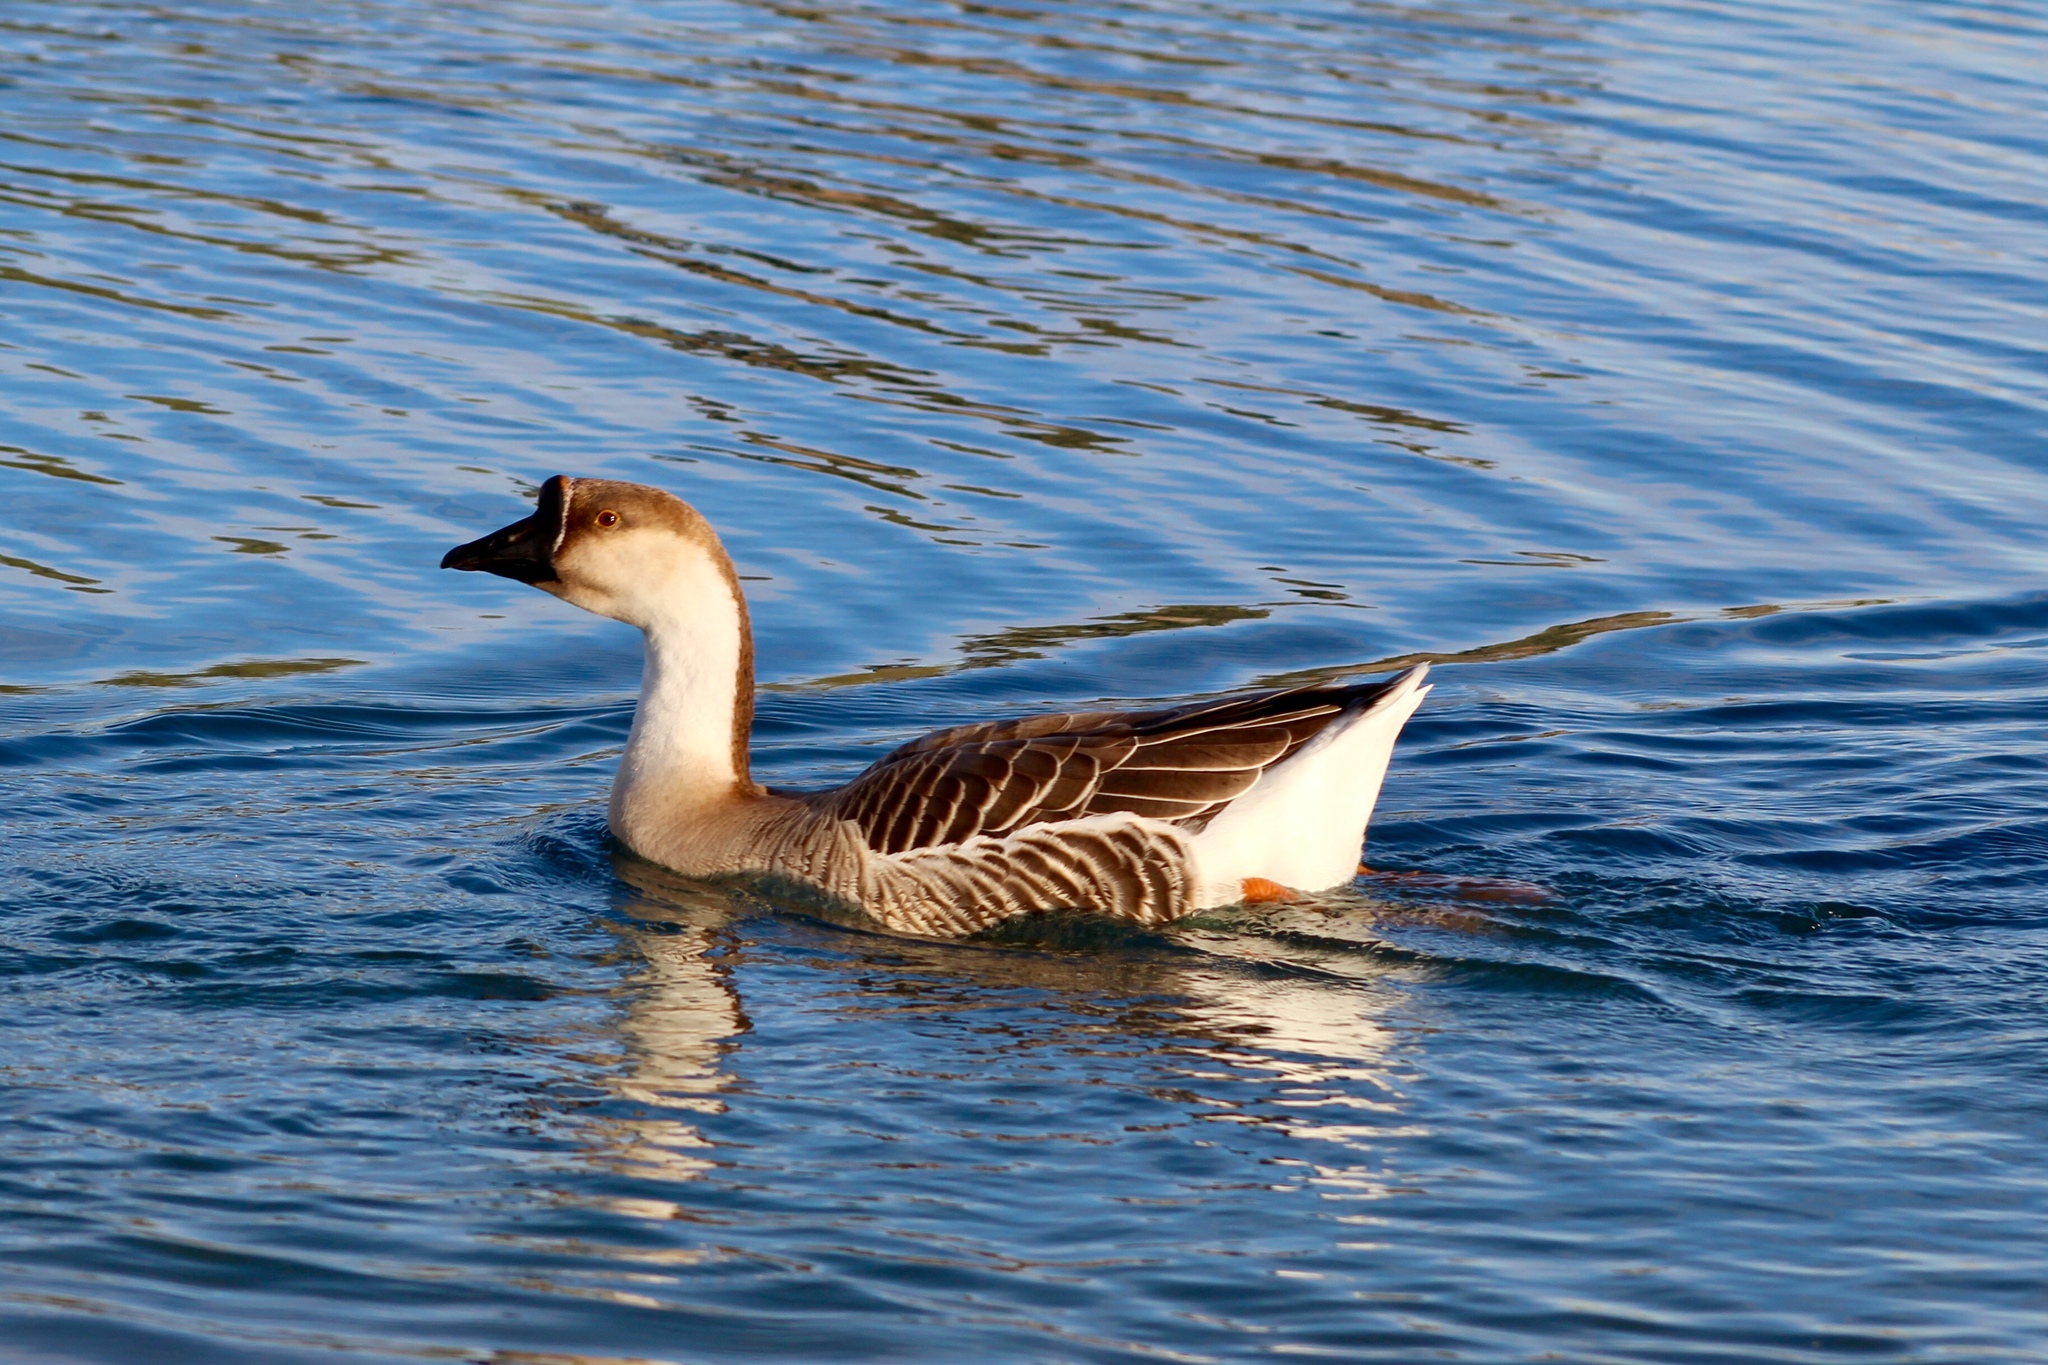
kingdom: Animalia
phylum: Chordata
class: Aves
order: Anseriformes
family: Anatidae
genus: Anser
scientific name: Anser cygnoides
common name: Swan goose
